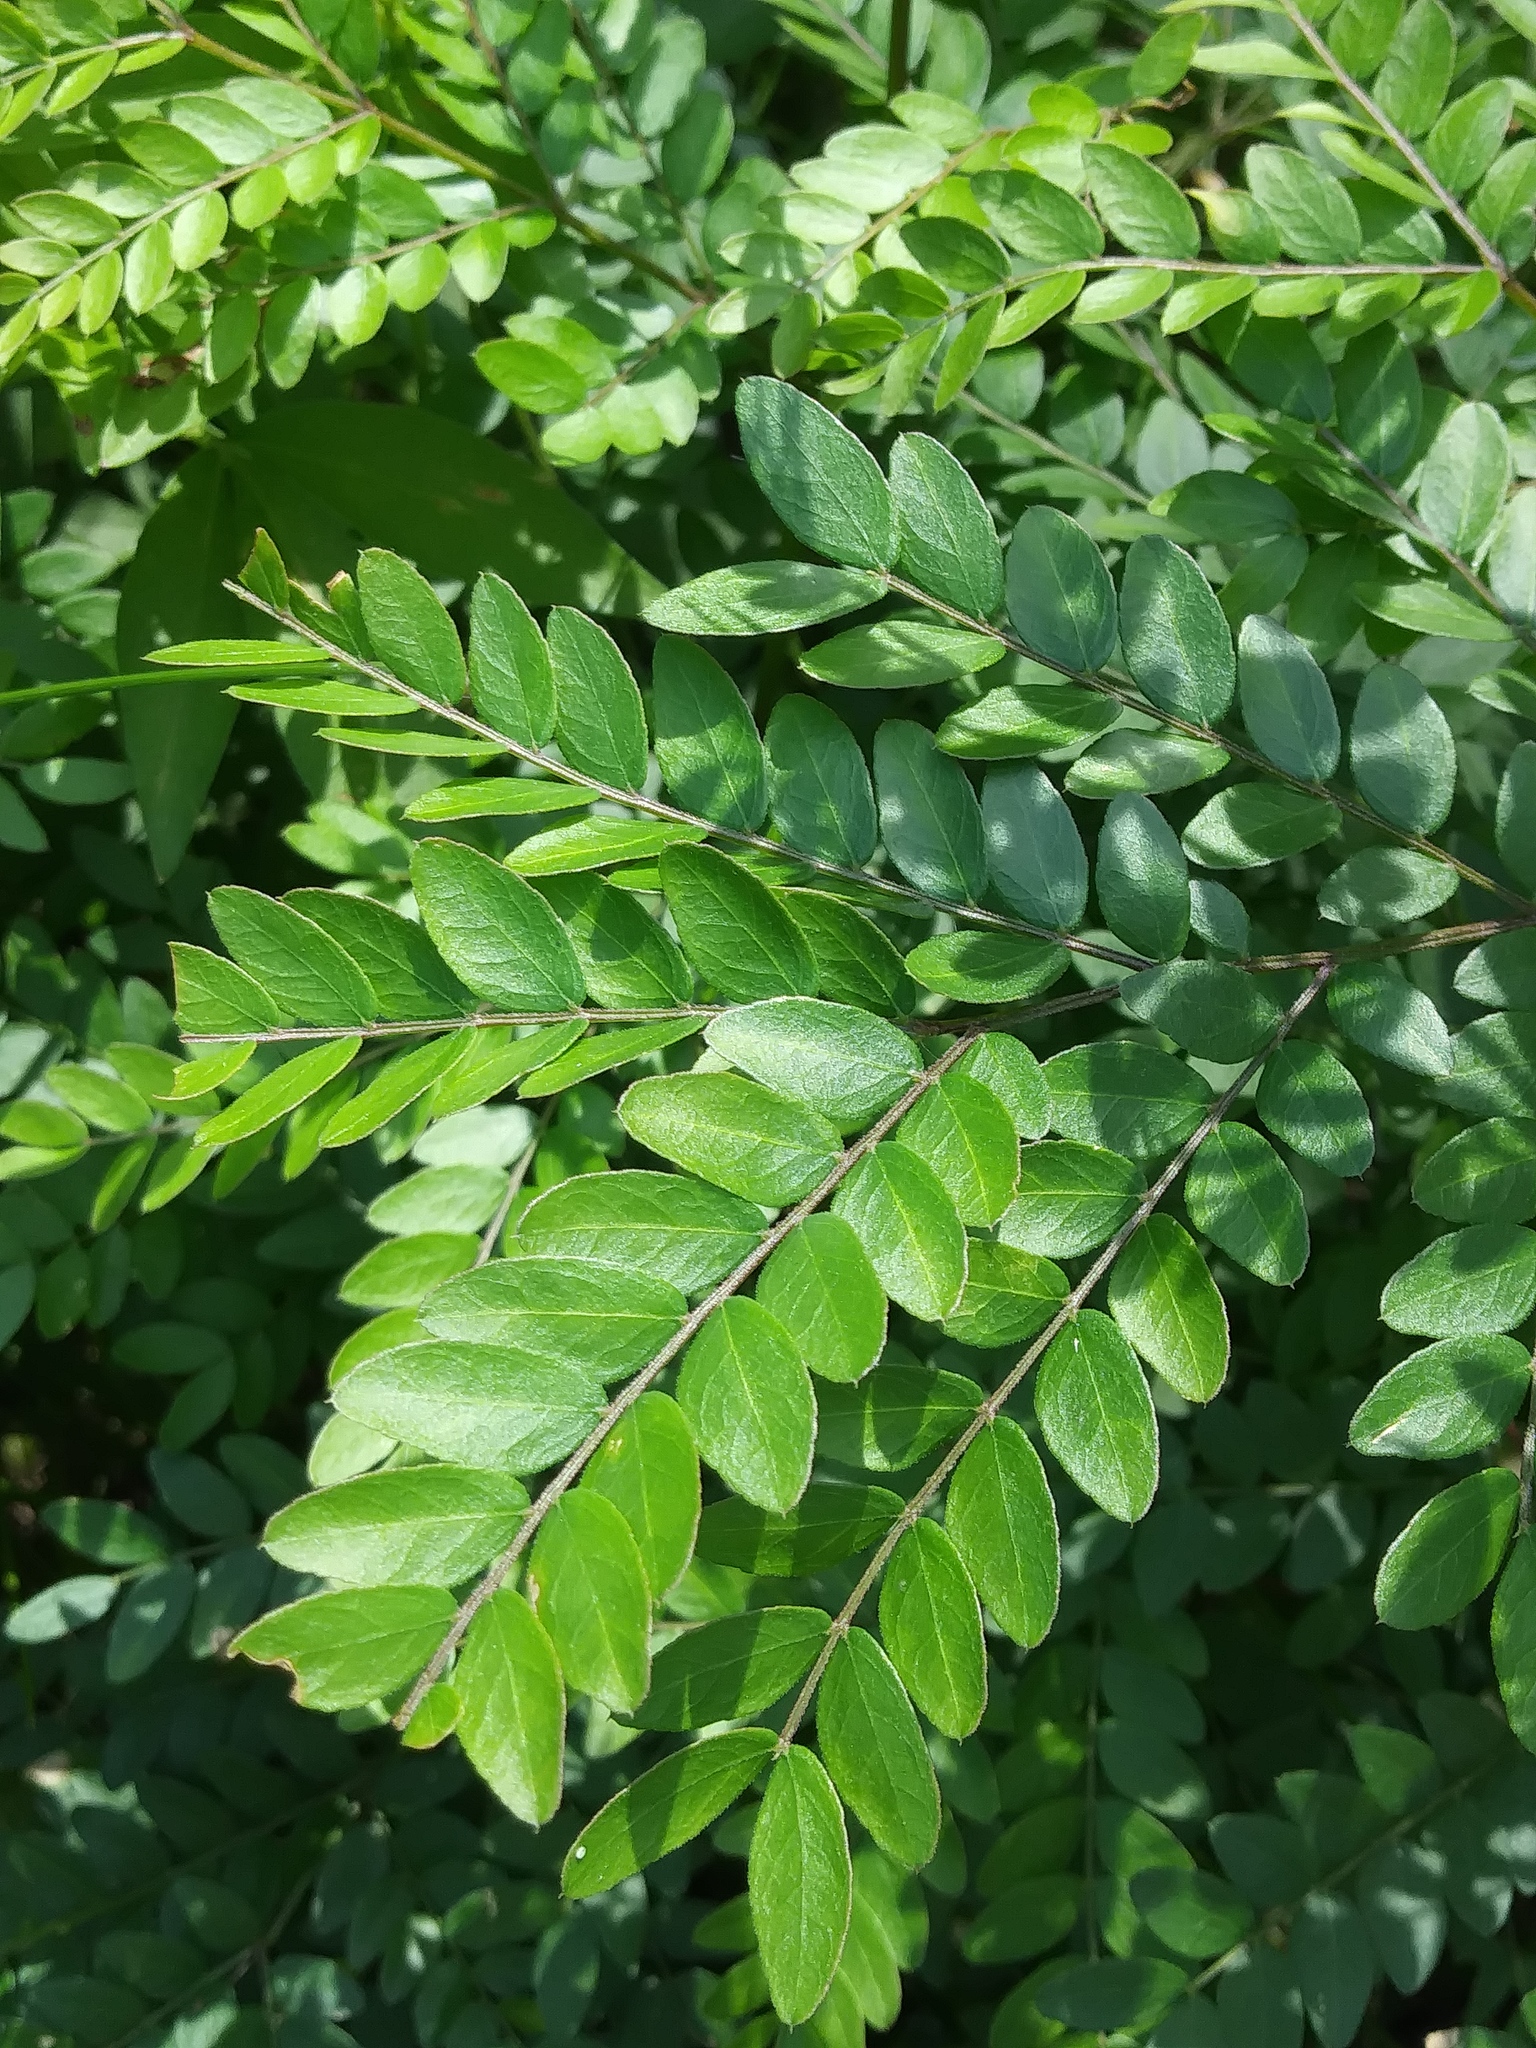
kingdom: Plantae
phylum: Tracheophyta
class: Magnoliopsida
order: Fabales
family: Fabaceae
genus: Gleditsia
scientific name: Gleditsia triacanthos
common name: Common honeylocust
